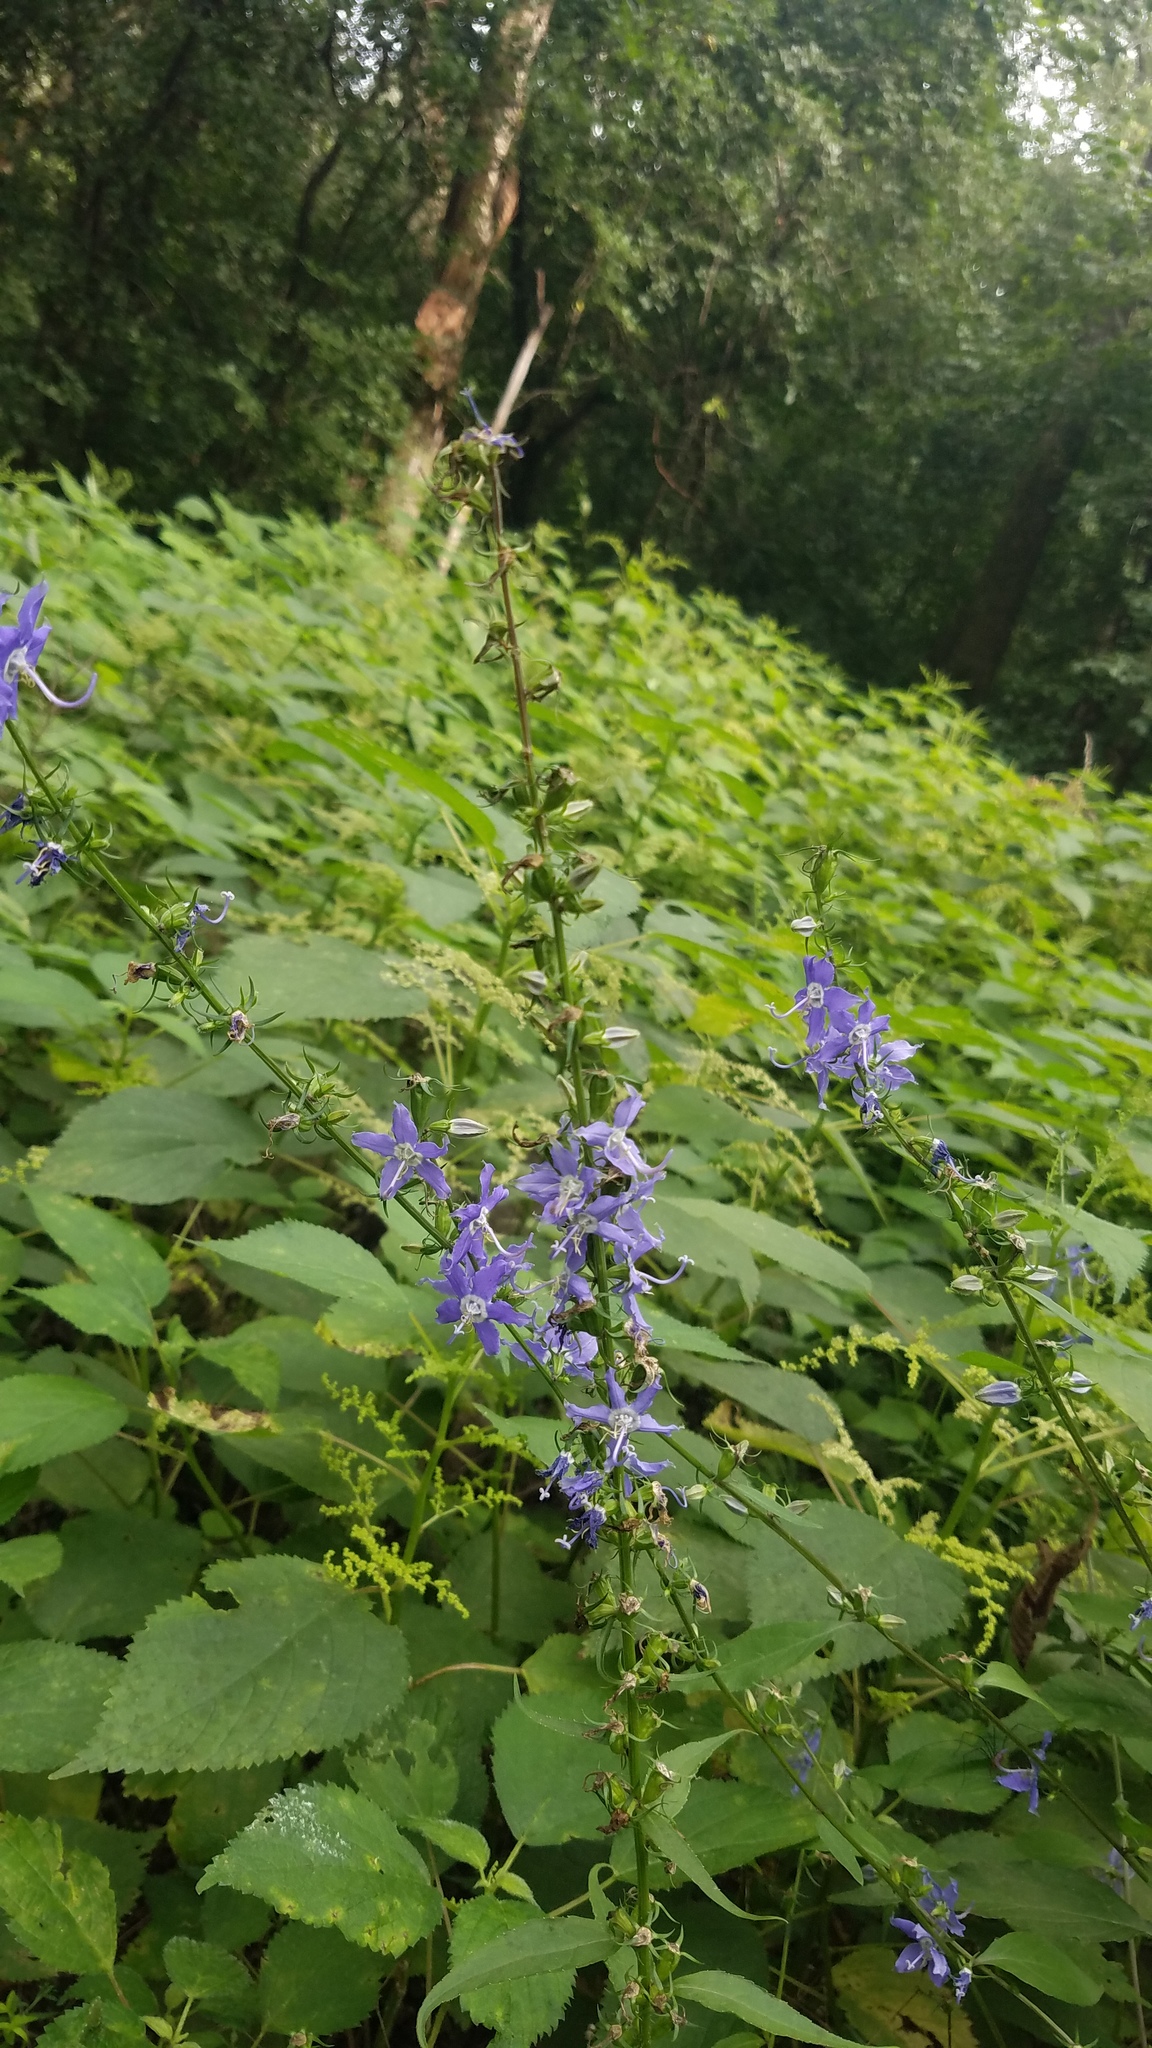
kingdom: Plantae
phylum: Tracheophyta
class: Magnoliopsida
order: Asterales
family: Campanulaceae
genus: Campanulastrum
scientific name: Campanulastrum americanum
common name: American bellflower
